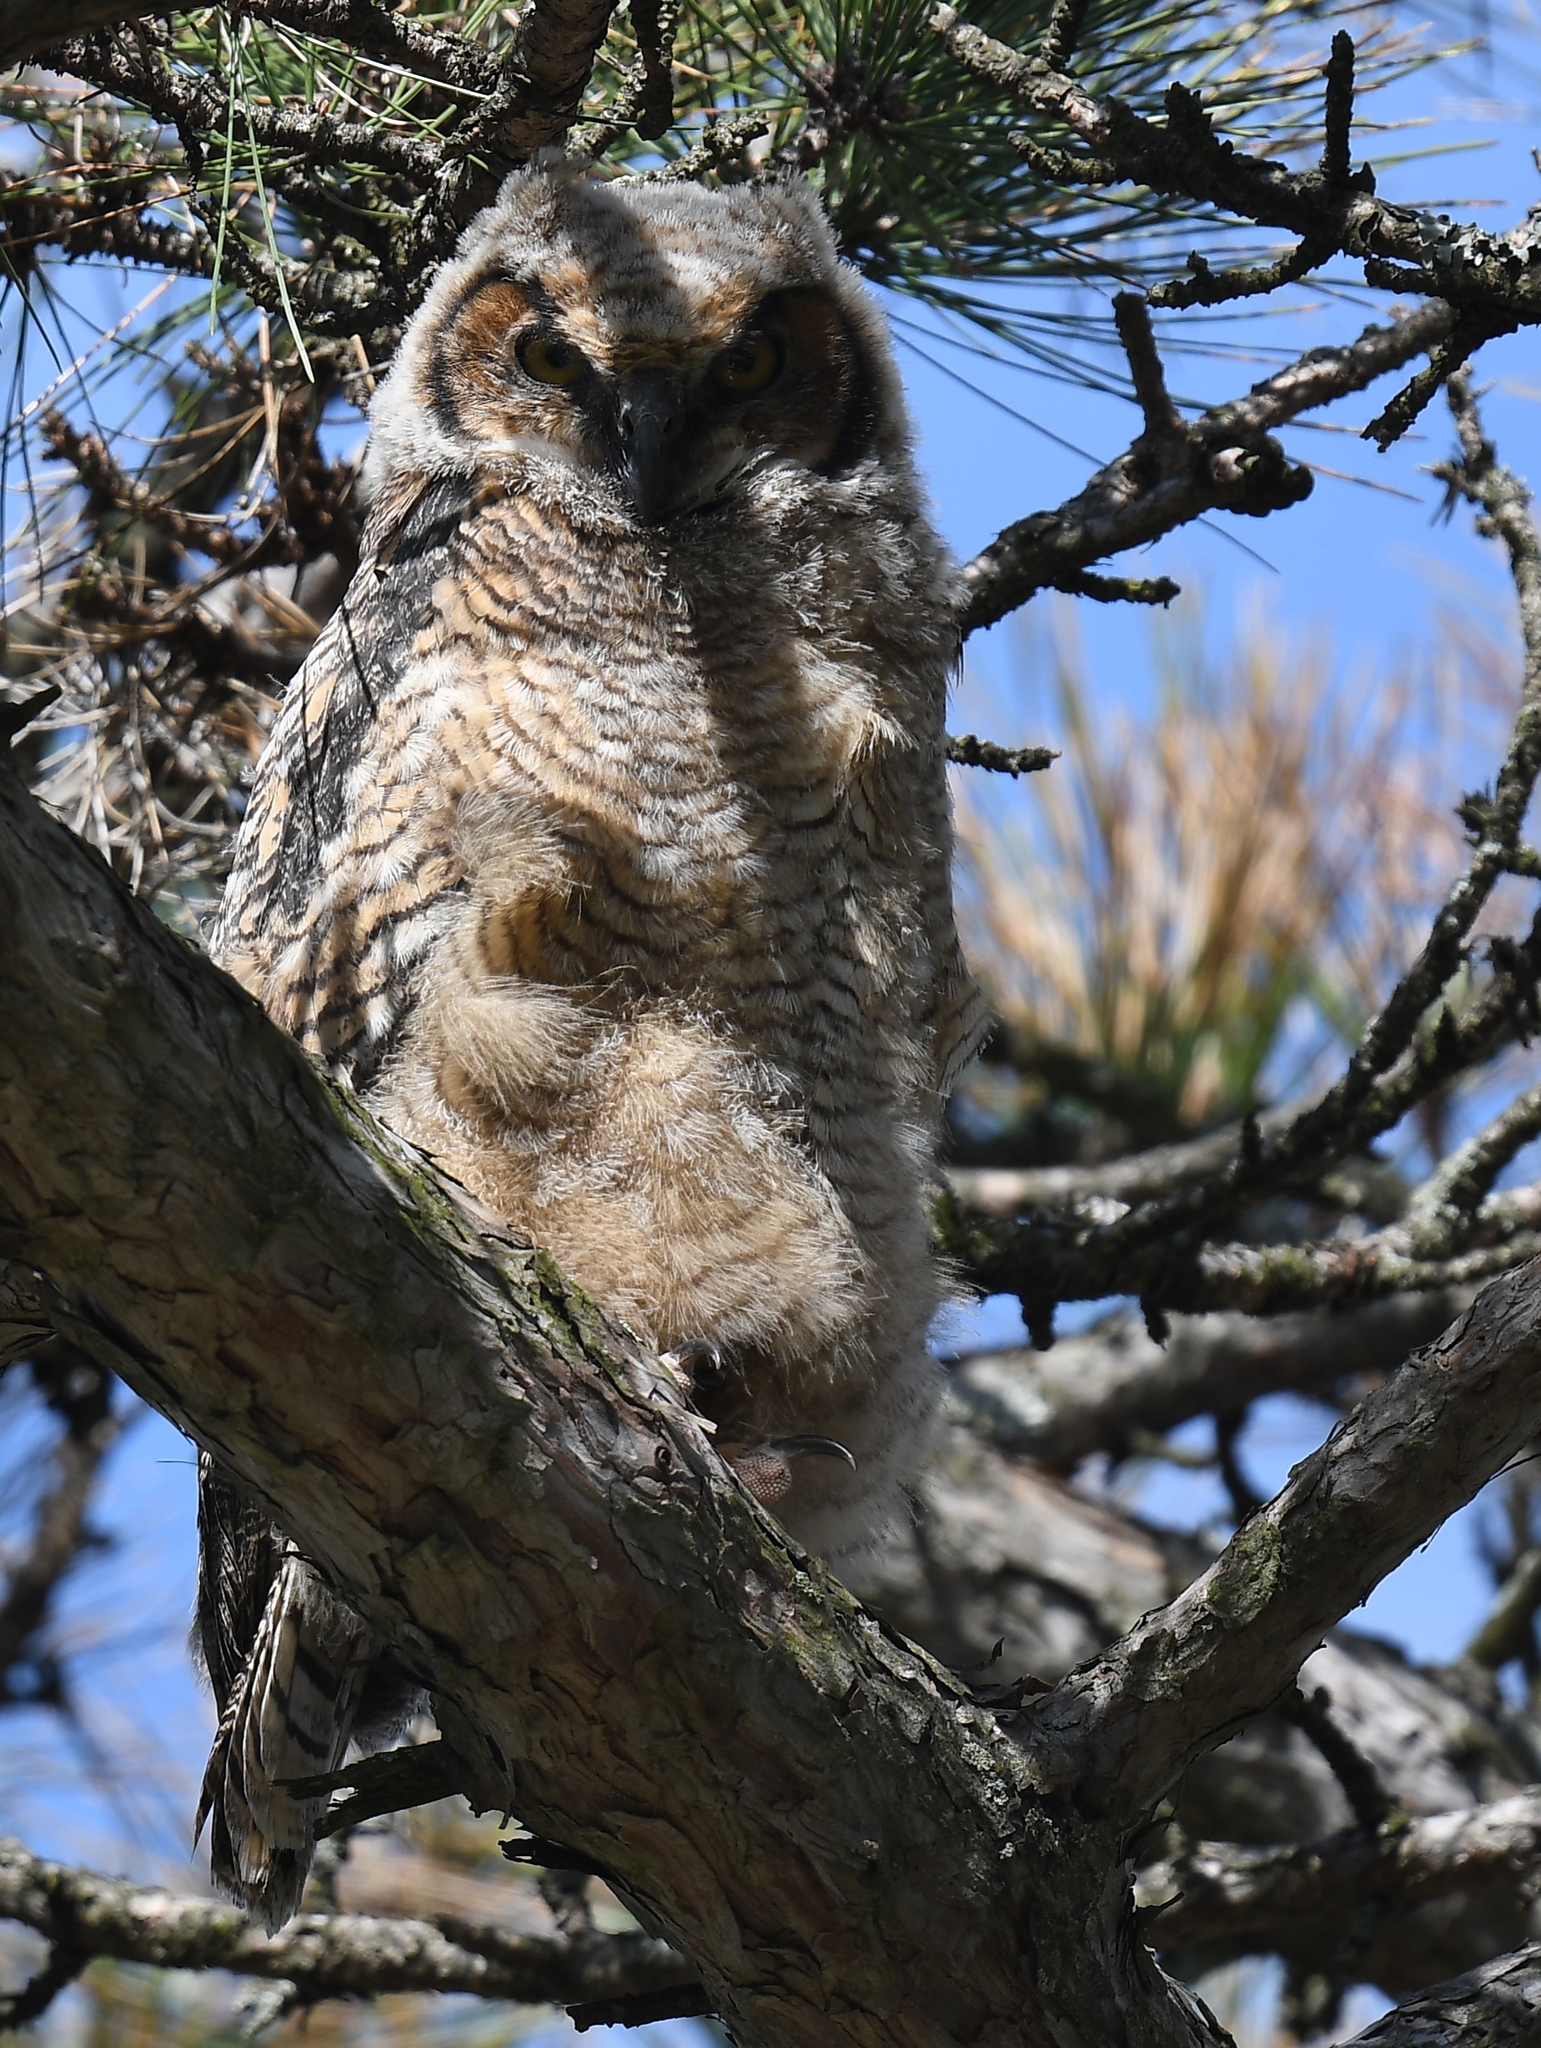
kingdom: Animalia
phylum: Chordata
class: Aves
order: Strigiformes
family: Strigidae
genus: Bubo
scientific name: Bubo virginianus
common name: Great horned owl
